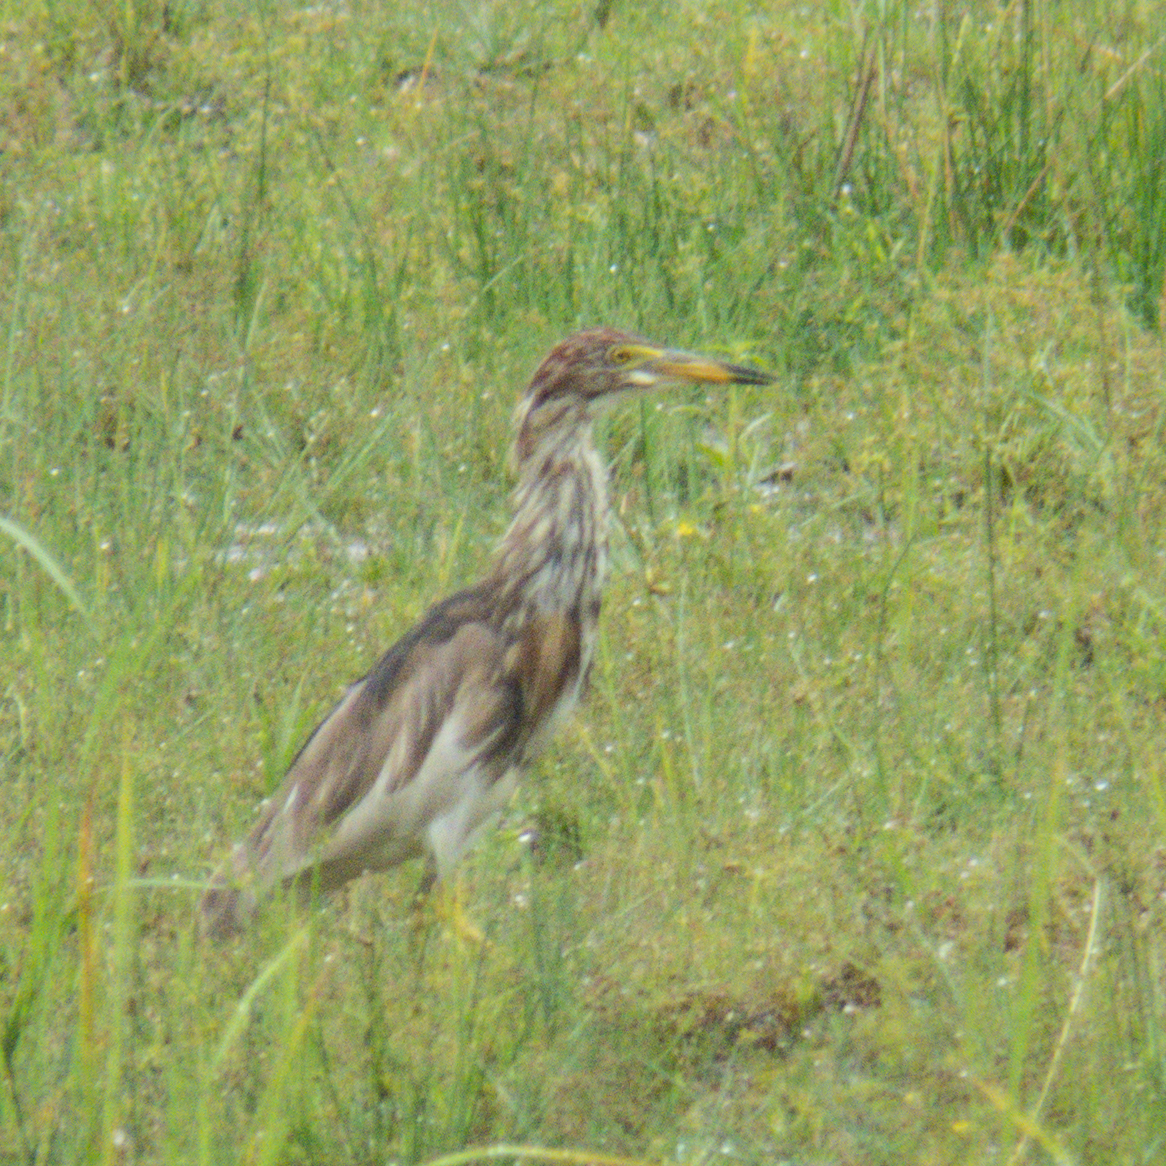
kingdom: Animalia
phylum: Chordata
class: Aves
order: Pelecaniformes
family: Ardeidae
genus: Ardeola
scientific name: Ardeola bacchus
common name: Chinese pond heron
